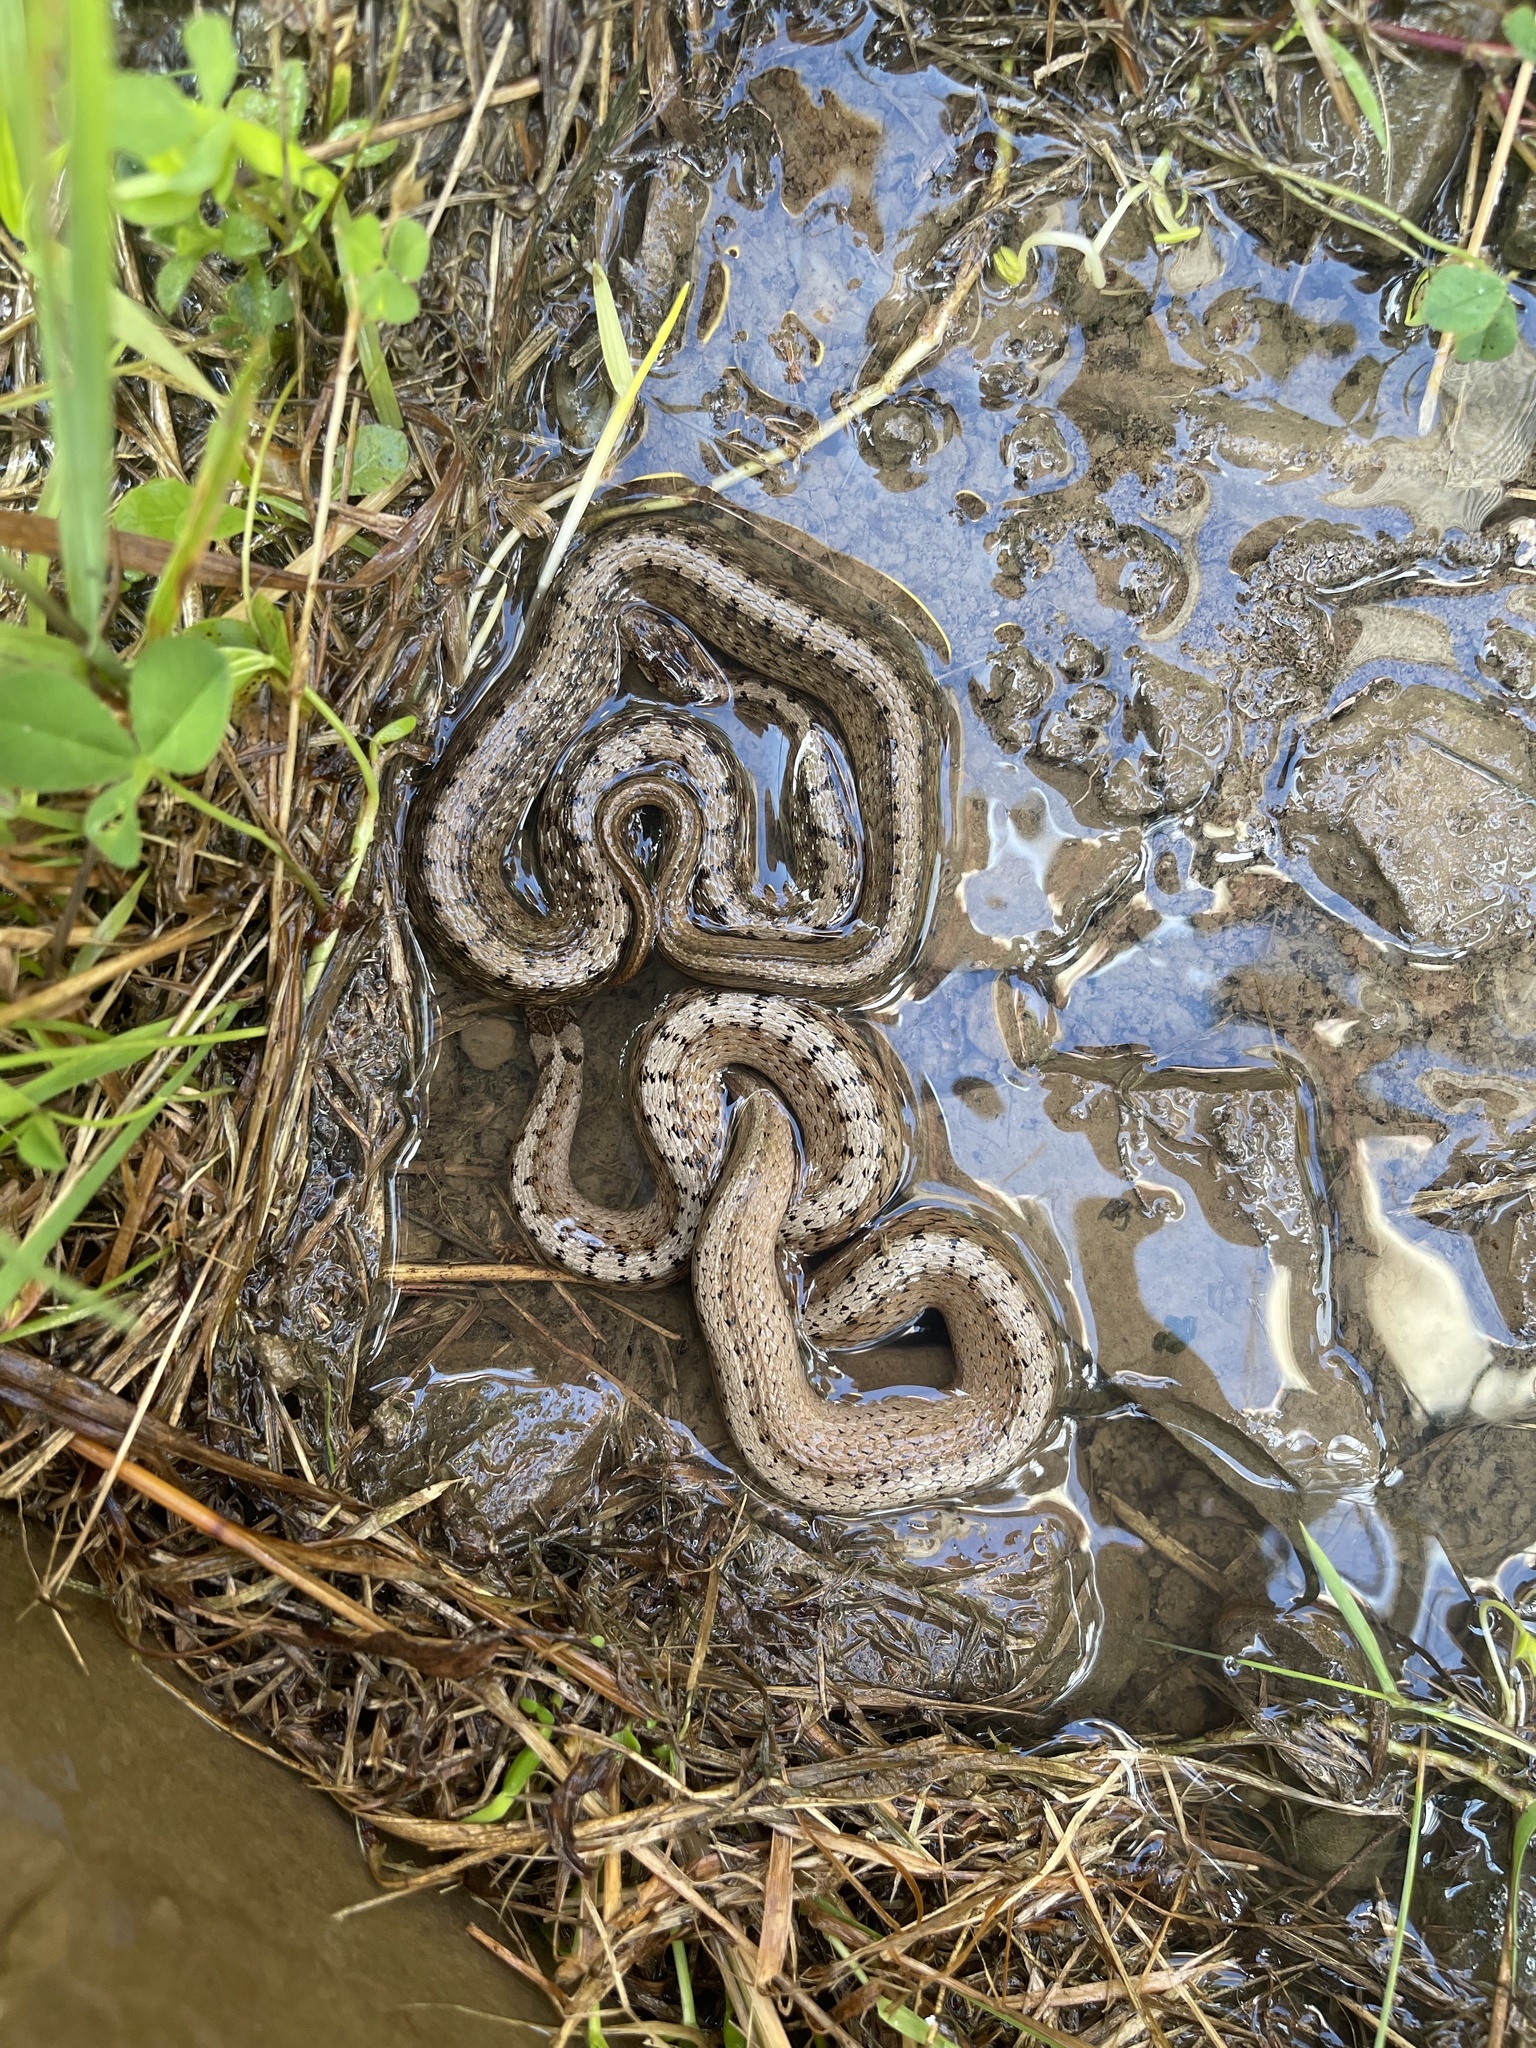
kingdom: Animalia
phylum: Chordata
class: Squamata
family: Colubridae
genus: Storeria
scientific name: Storeria dekayi
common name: (dekay’s) brown snake
